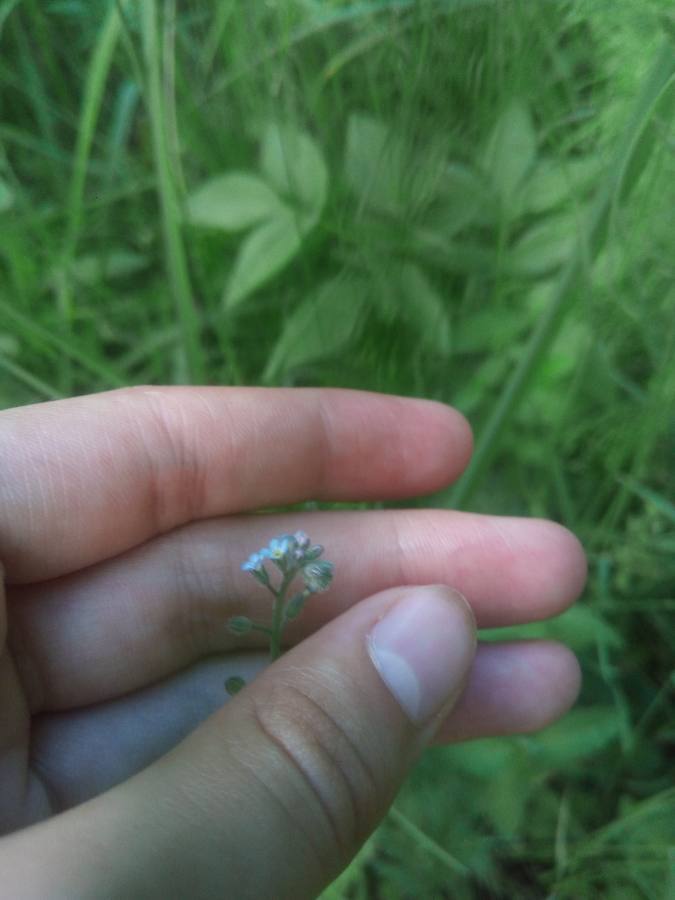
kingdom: Plantae
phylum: Tracheophyta
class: Magnoliopsida
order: Boraginales
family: Boraginaceae
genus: Myosotis
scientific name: Myosotis arvensis
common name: Field forget-me-not
